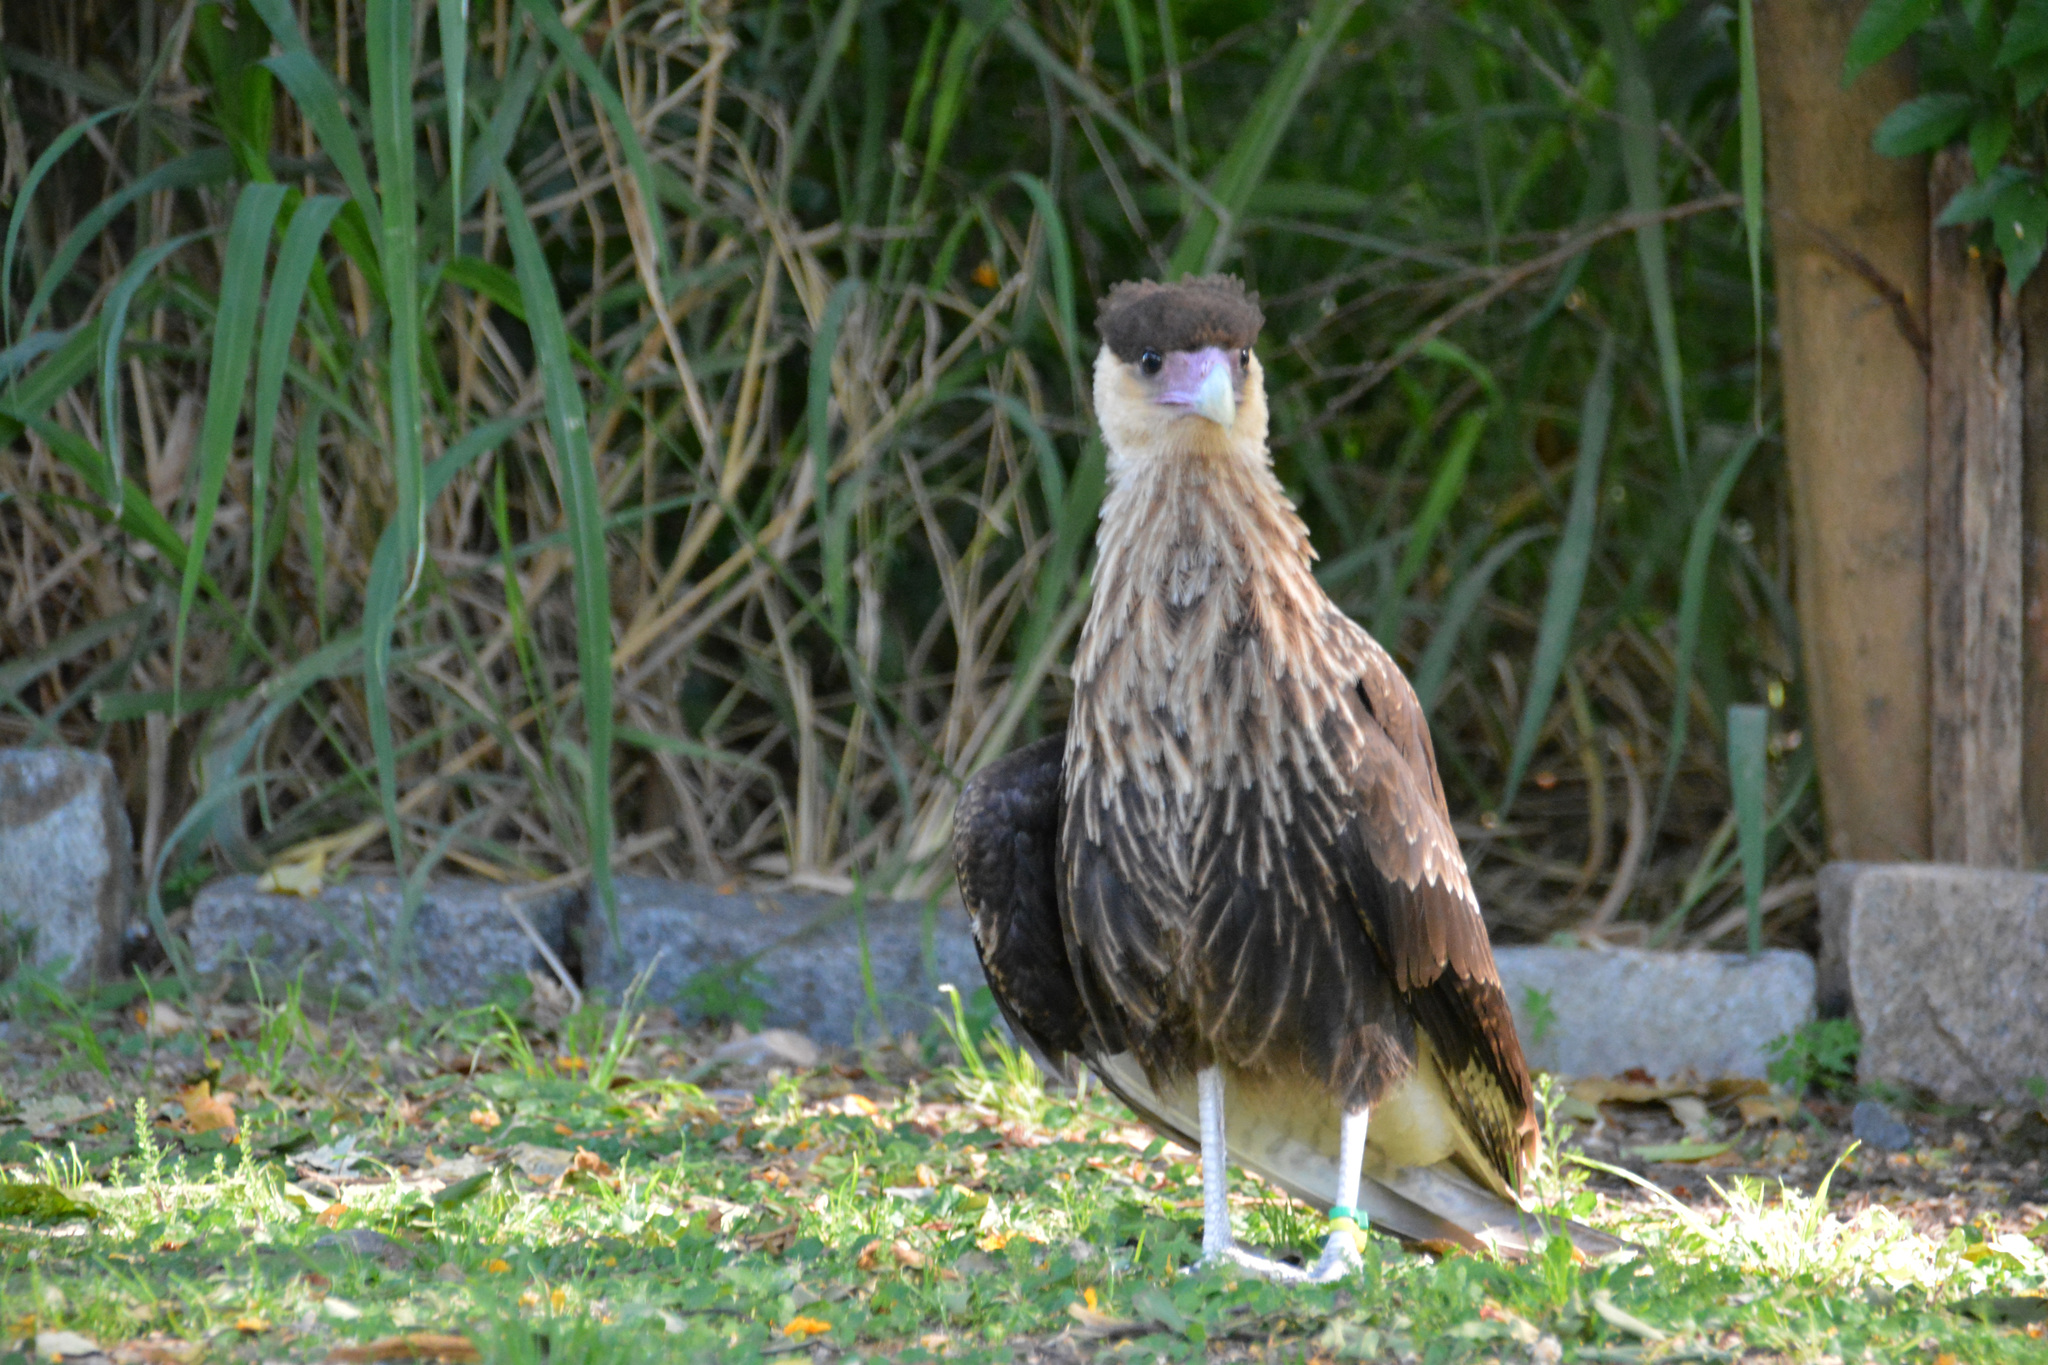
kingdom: Animalia
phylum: Chordata
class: Aves
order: Falconiformes
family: Falconidae
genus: Caracara
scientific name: Caracara plancus
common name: Southern caracara
